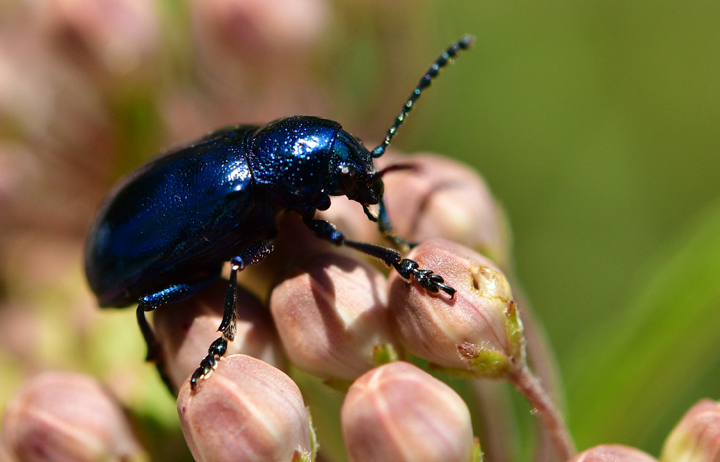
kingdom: Animalia
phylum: Arthropoda
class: Insecta
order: Coleoptera
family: Chrysomelidae
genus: Chrysochus
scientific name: Chrysochus cobaltinus
